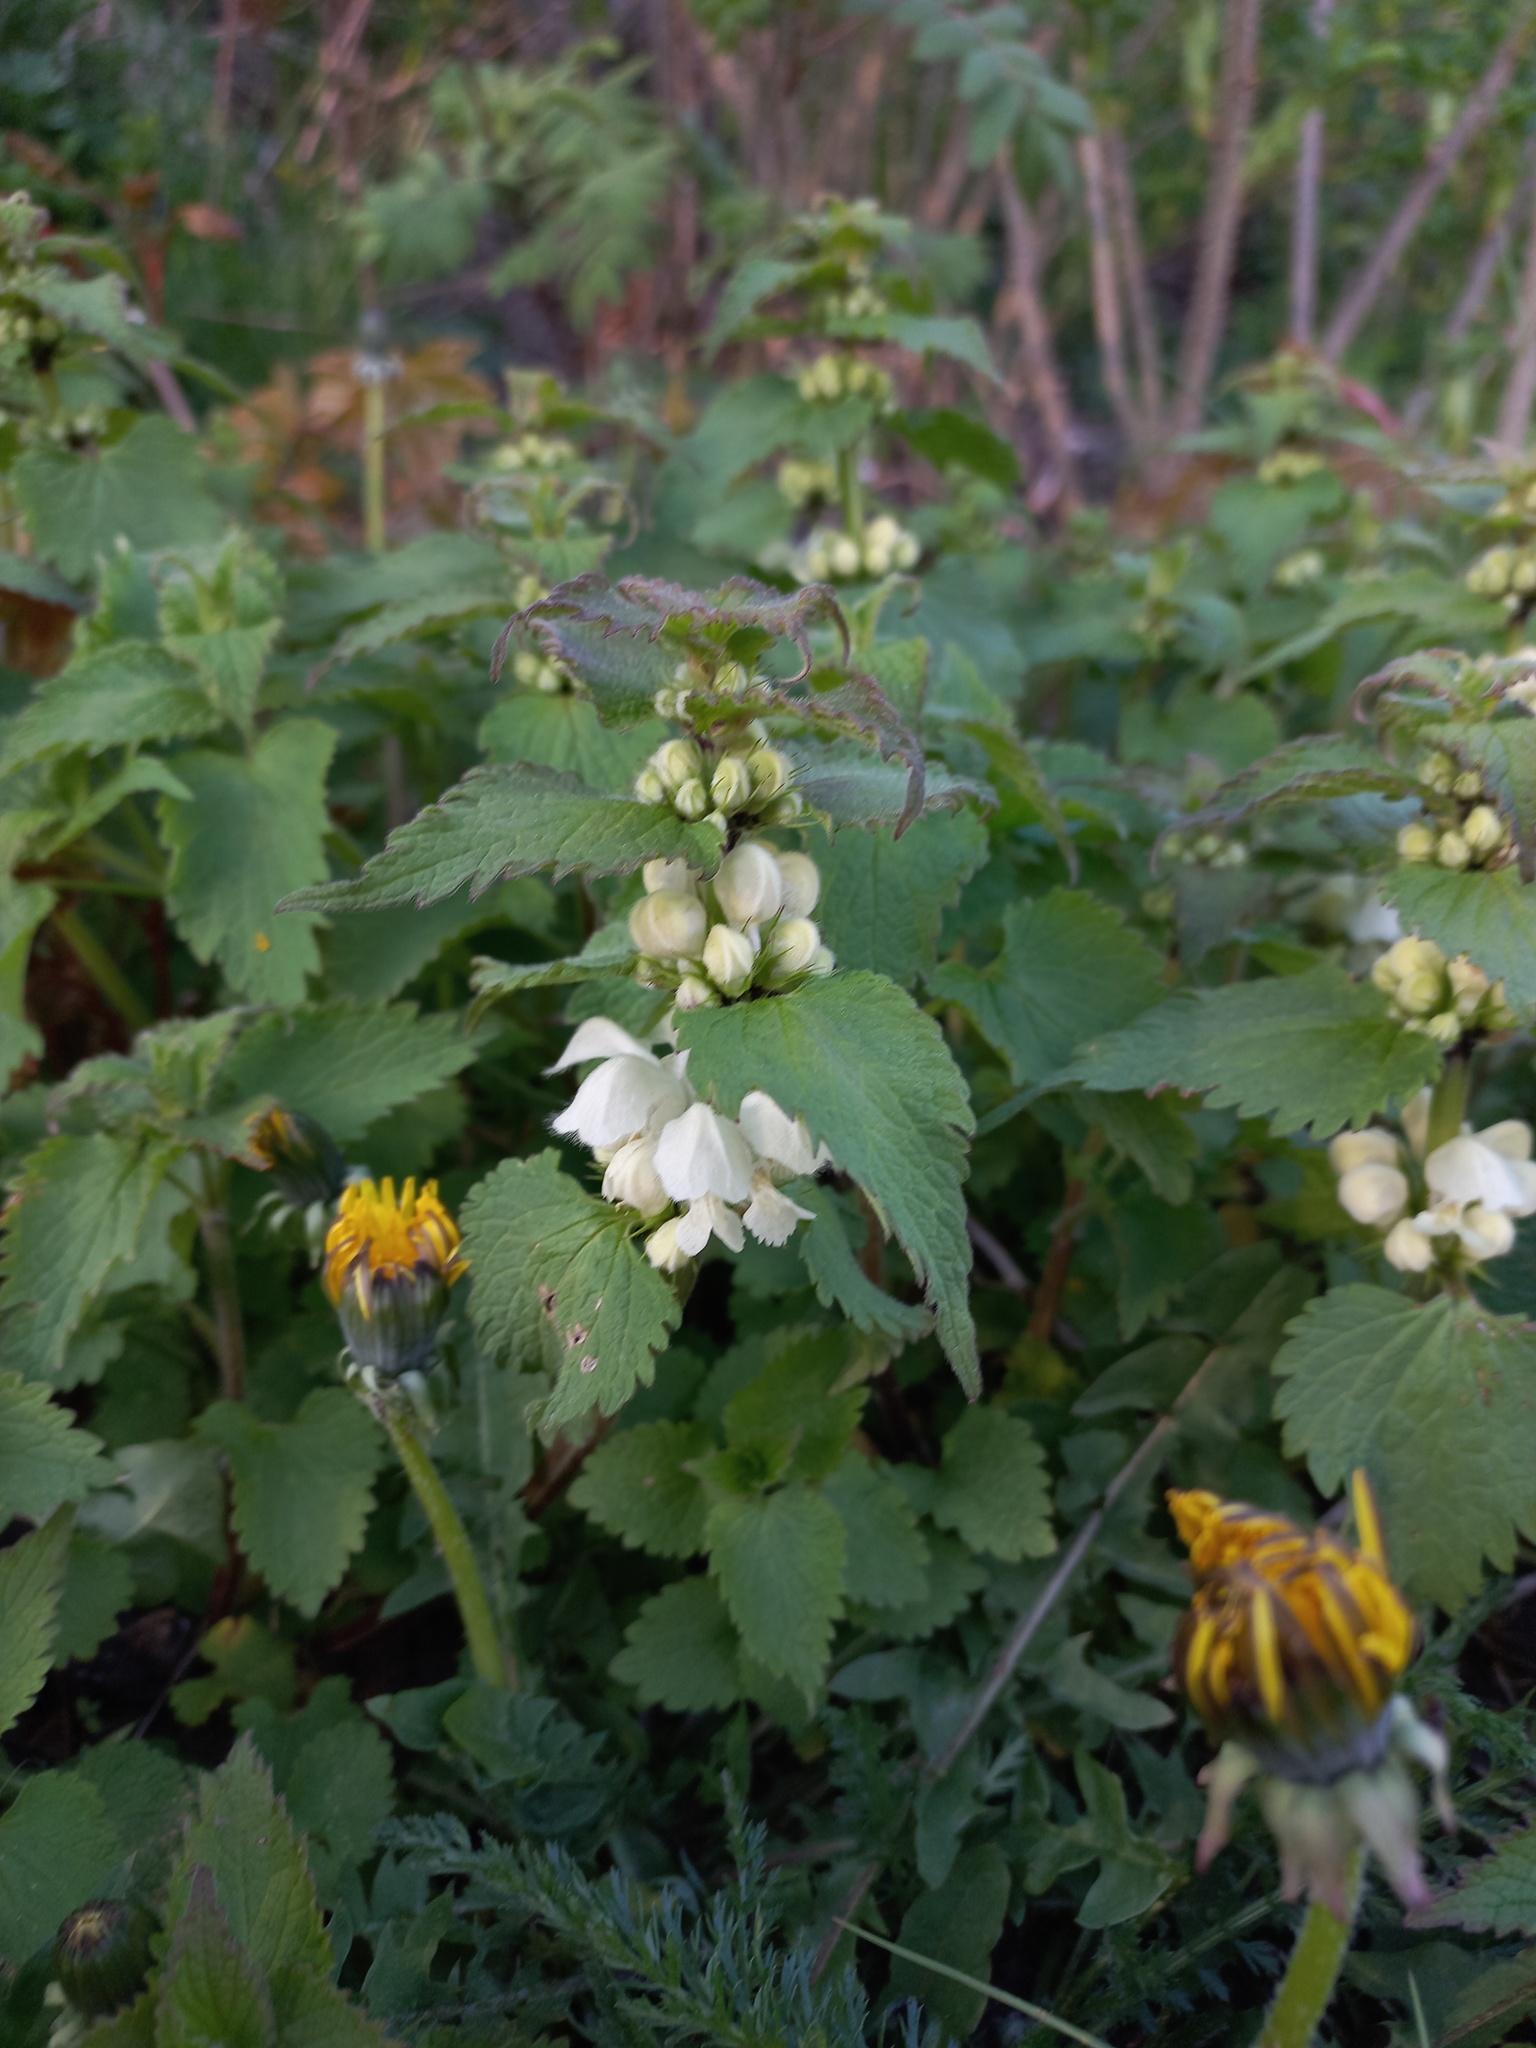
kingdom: Plantae
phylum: Tracheophyta
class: Magnoliopsida
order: Lamiales
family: Lamiaceae
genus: Lamium
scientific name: Lamium album
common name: White dead-nettle
